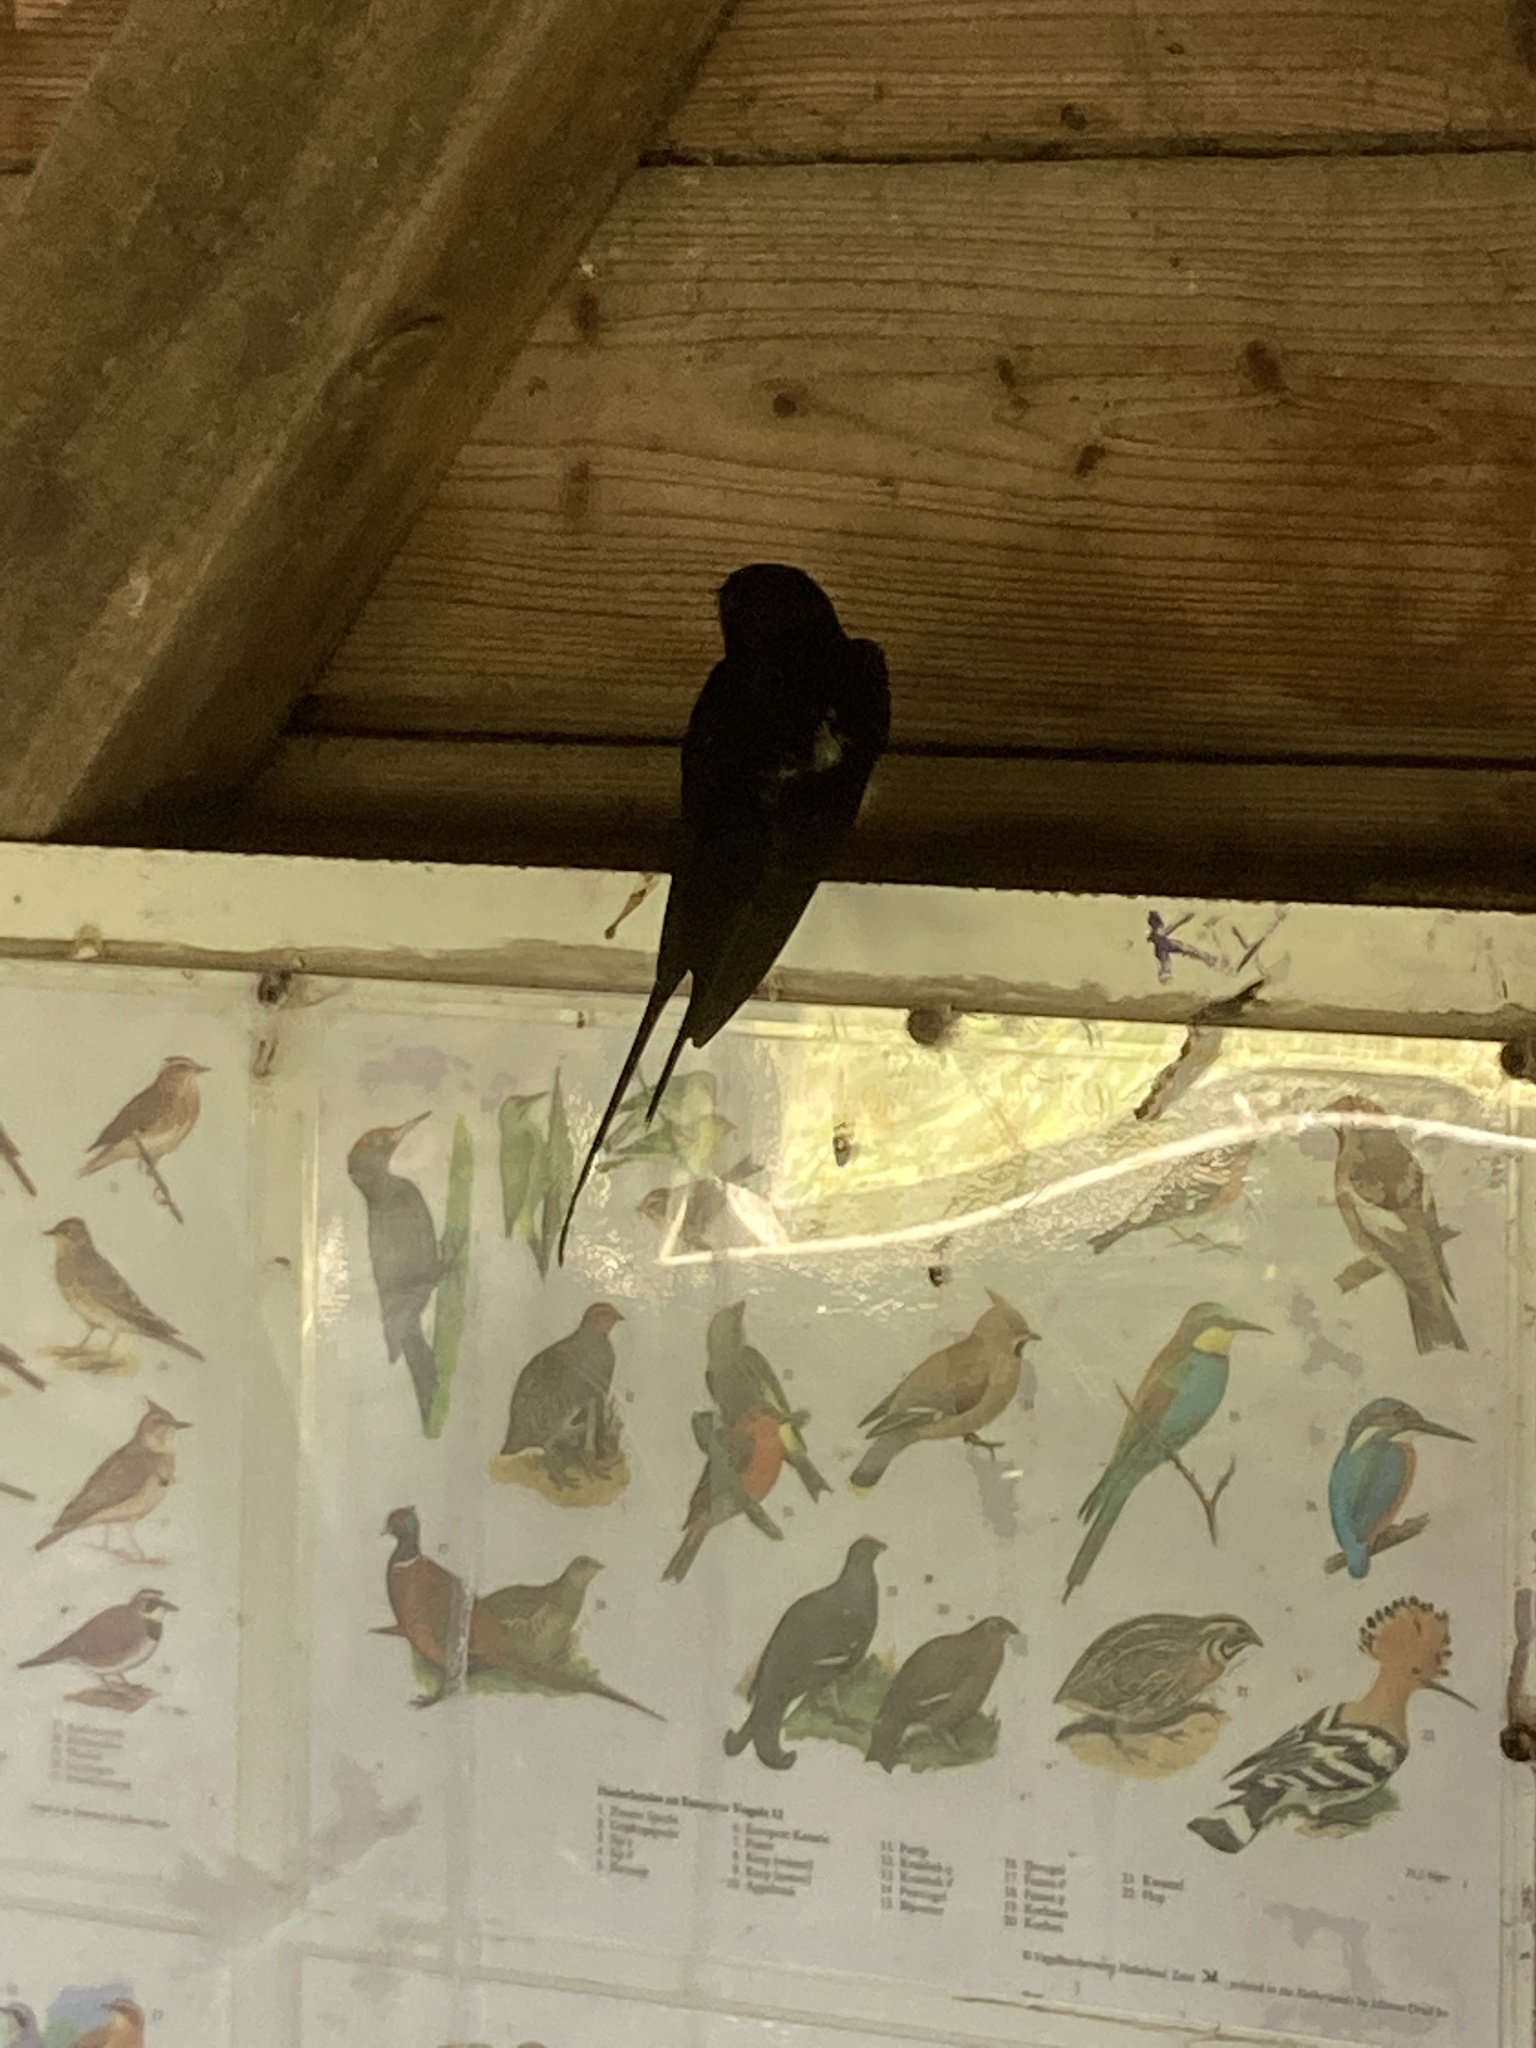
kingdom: Animalia
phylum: Chordata
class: Aves
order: Passeriformes
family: Hirundinidae
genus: Hirundo
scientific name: Hirundo rustica
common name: Barn swallow
